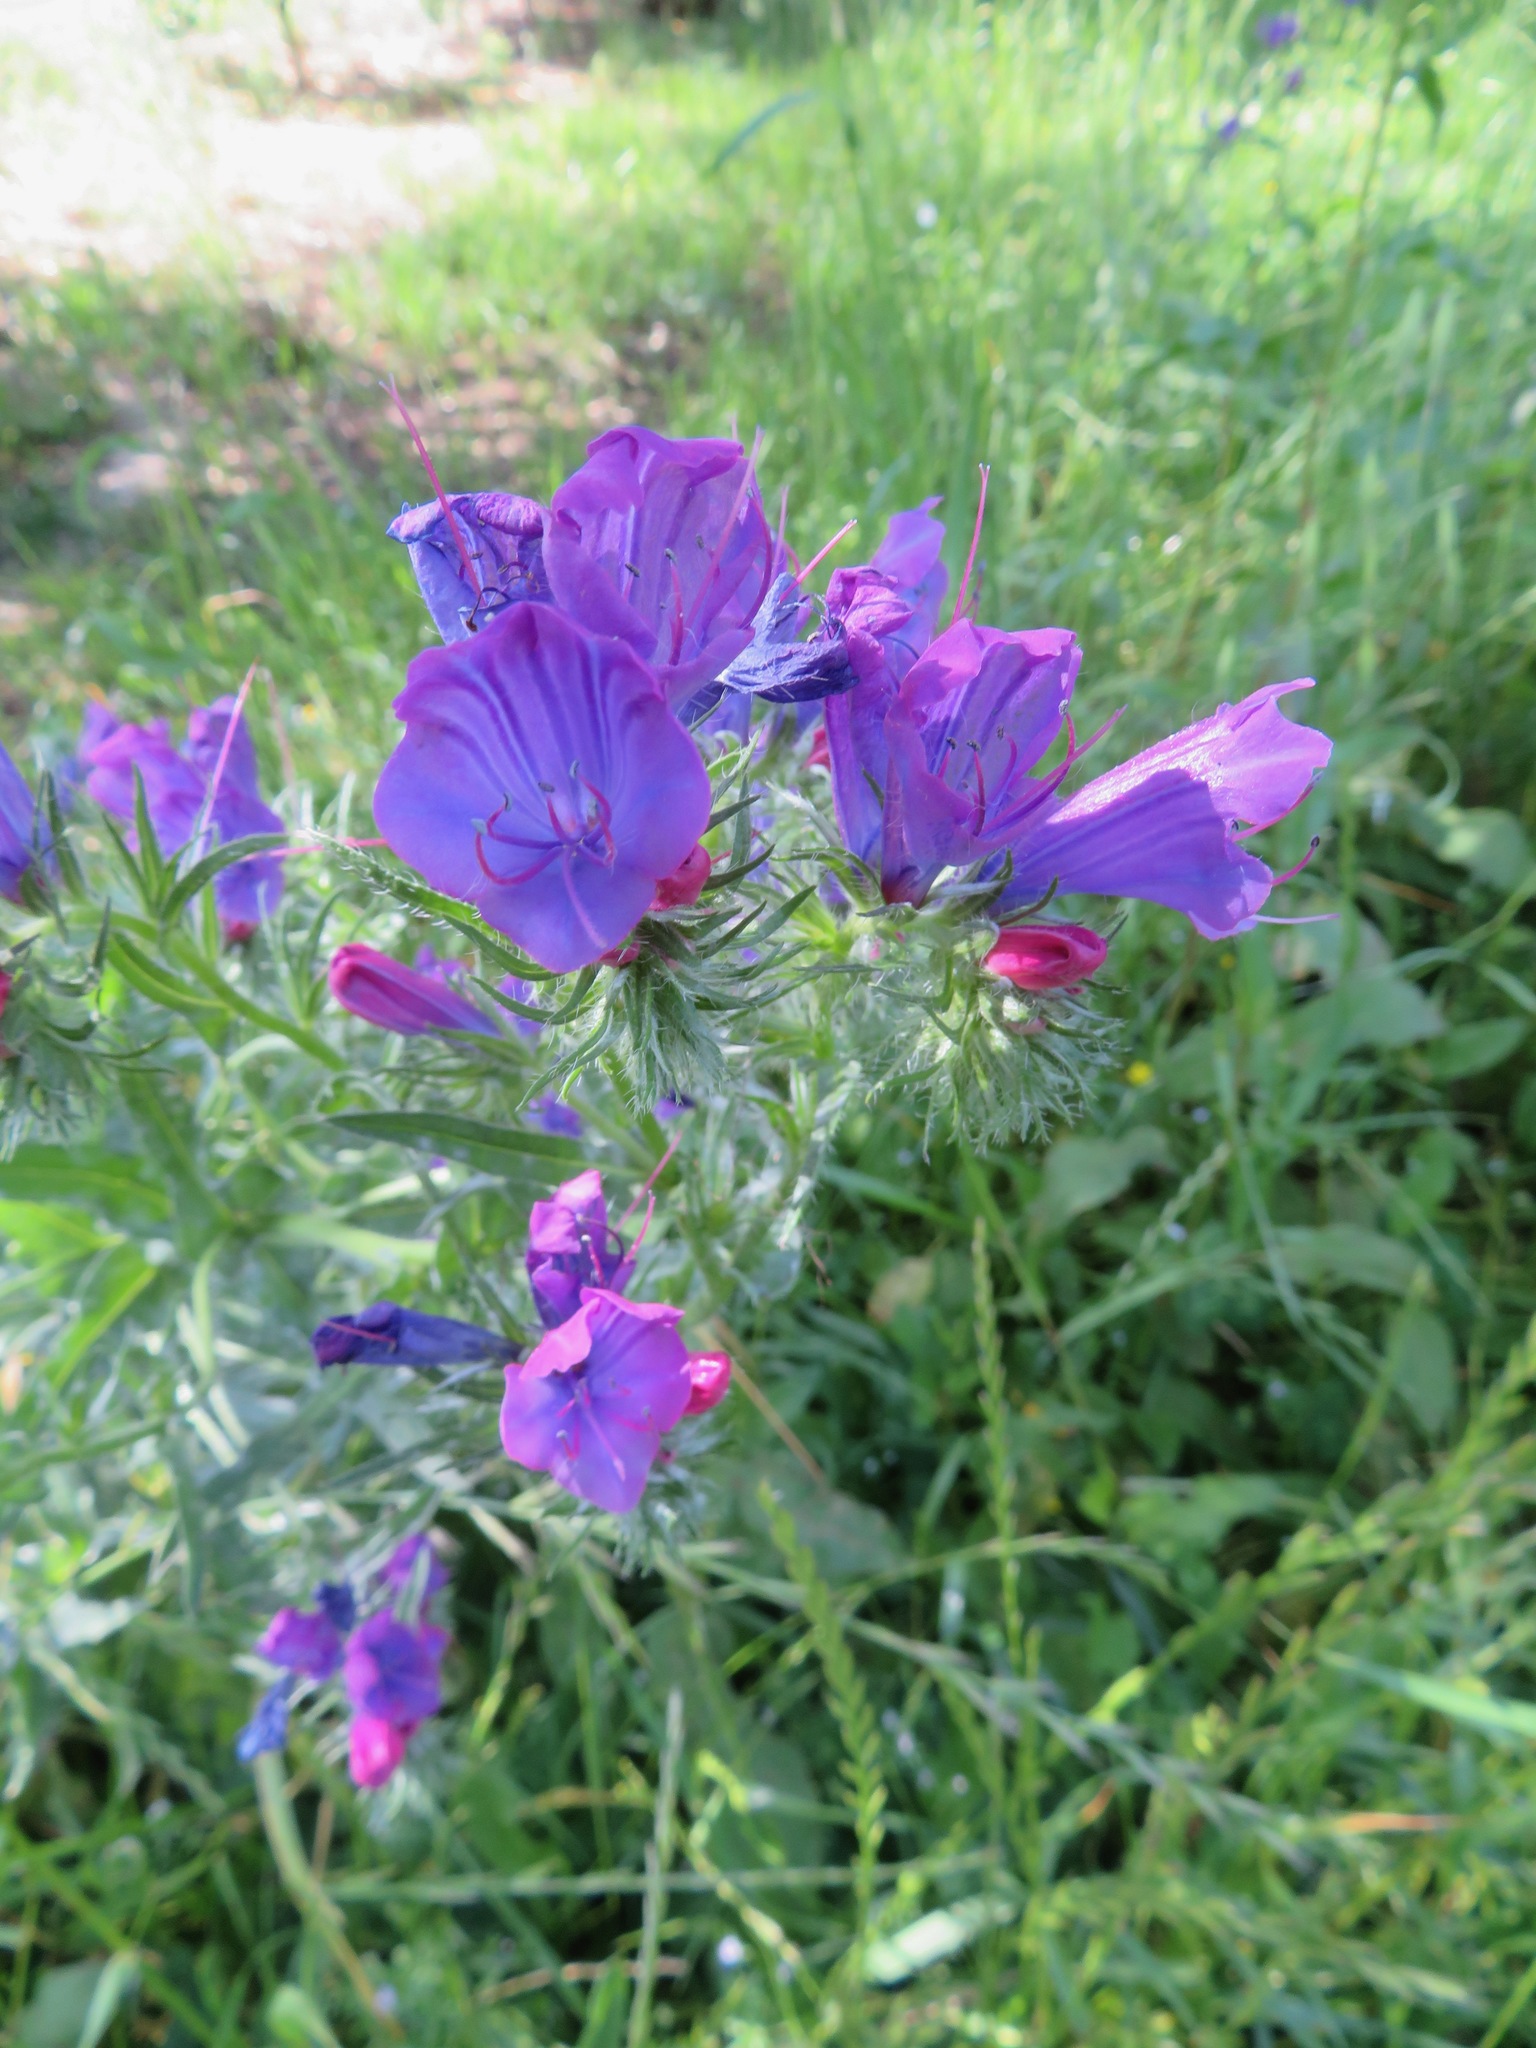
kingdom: Plantae
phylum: Tracheophyta
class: Magnoliopsida
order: Boraginales
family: Boraginaceae
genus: Echium
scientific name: Echium plantagineum
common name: Purple viper's-bugloss
